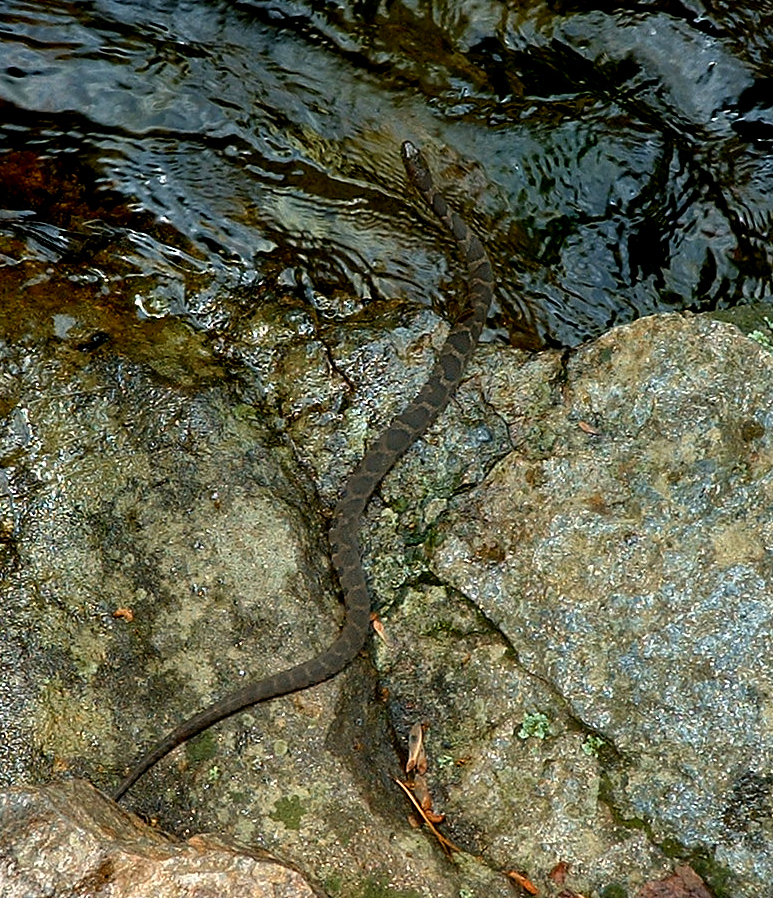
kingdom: Animalia
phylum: Chordata
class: Squamata
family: Colubridae
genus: Nerodia
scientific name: Nerodia sipedon
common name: Northern water snake
